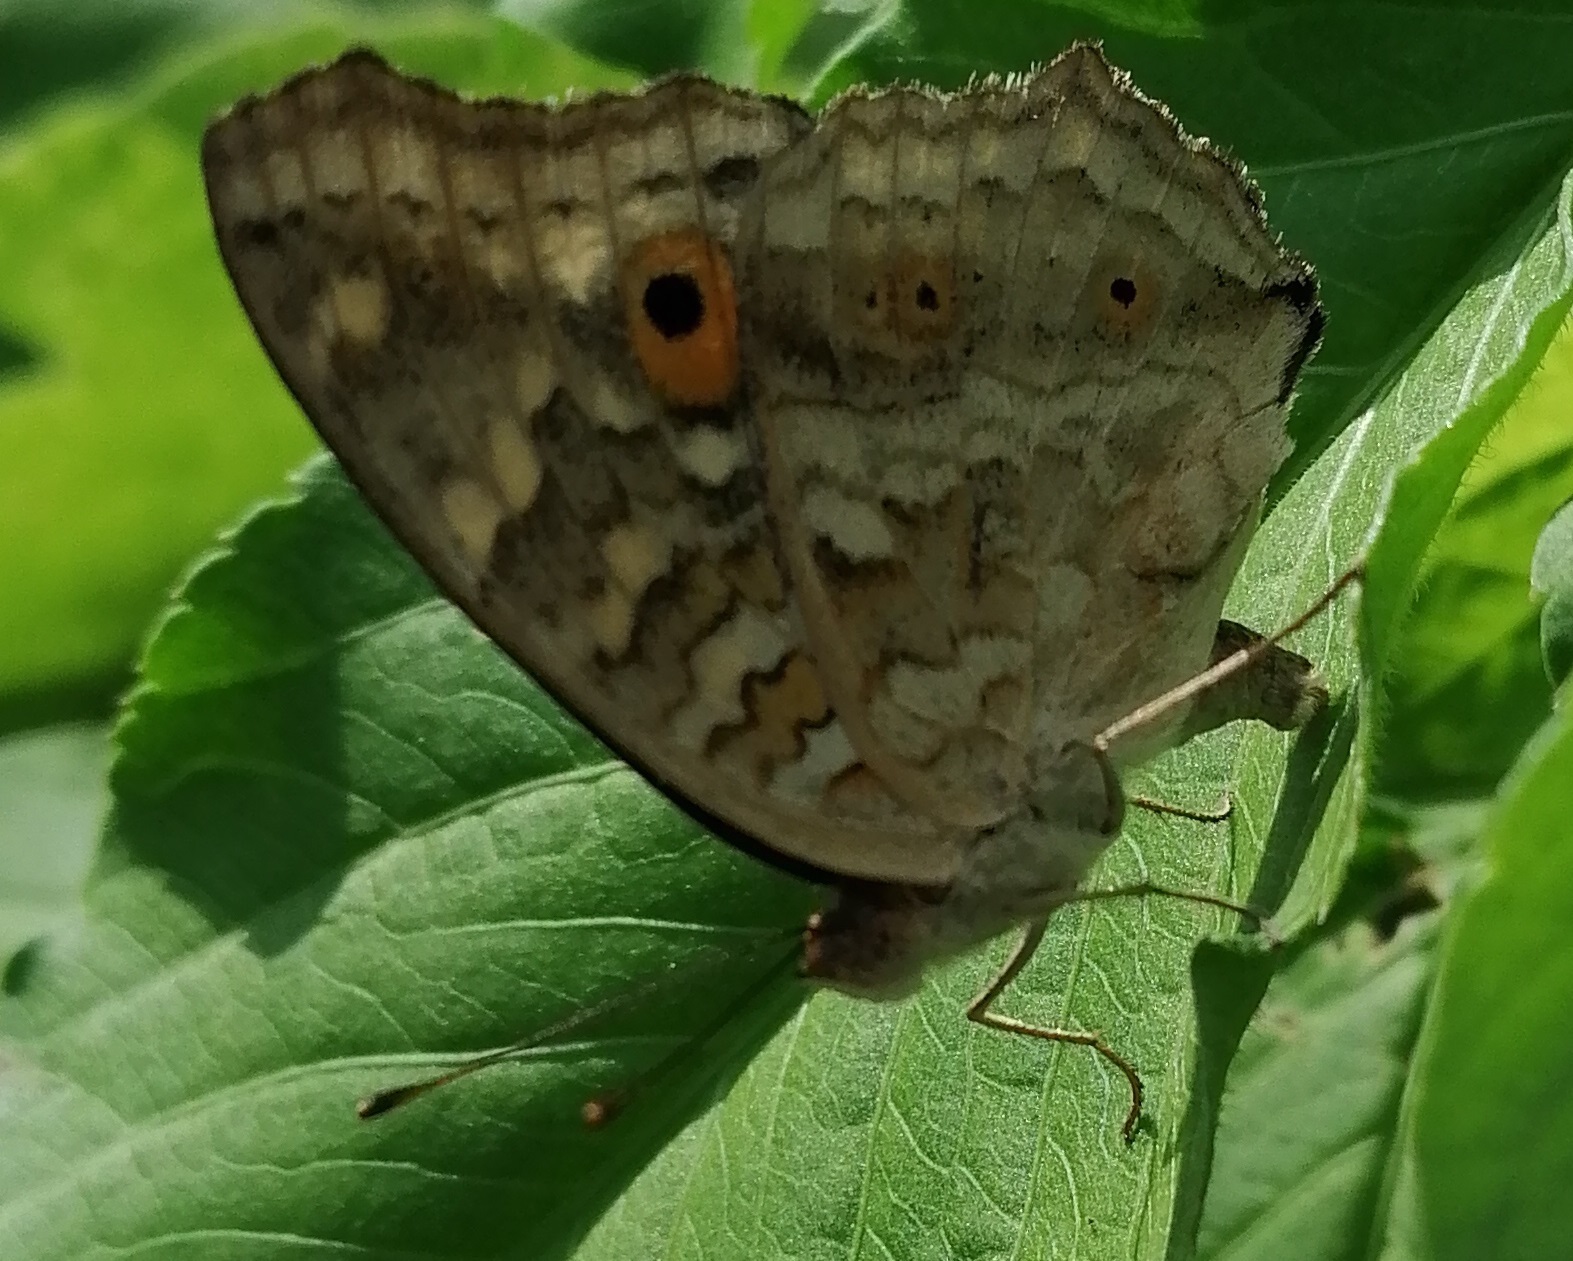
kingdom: Animalia
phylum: Arthropoda
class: Insecta
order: Lepidoptera
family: Nymphalidae
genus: Junonia
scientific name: Junonia lemonias
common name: Lemon pansy
